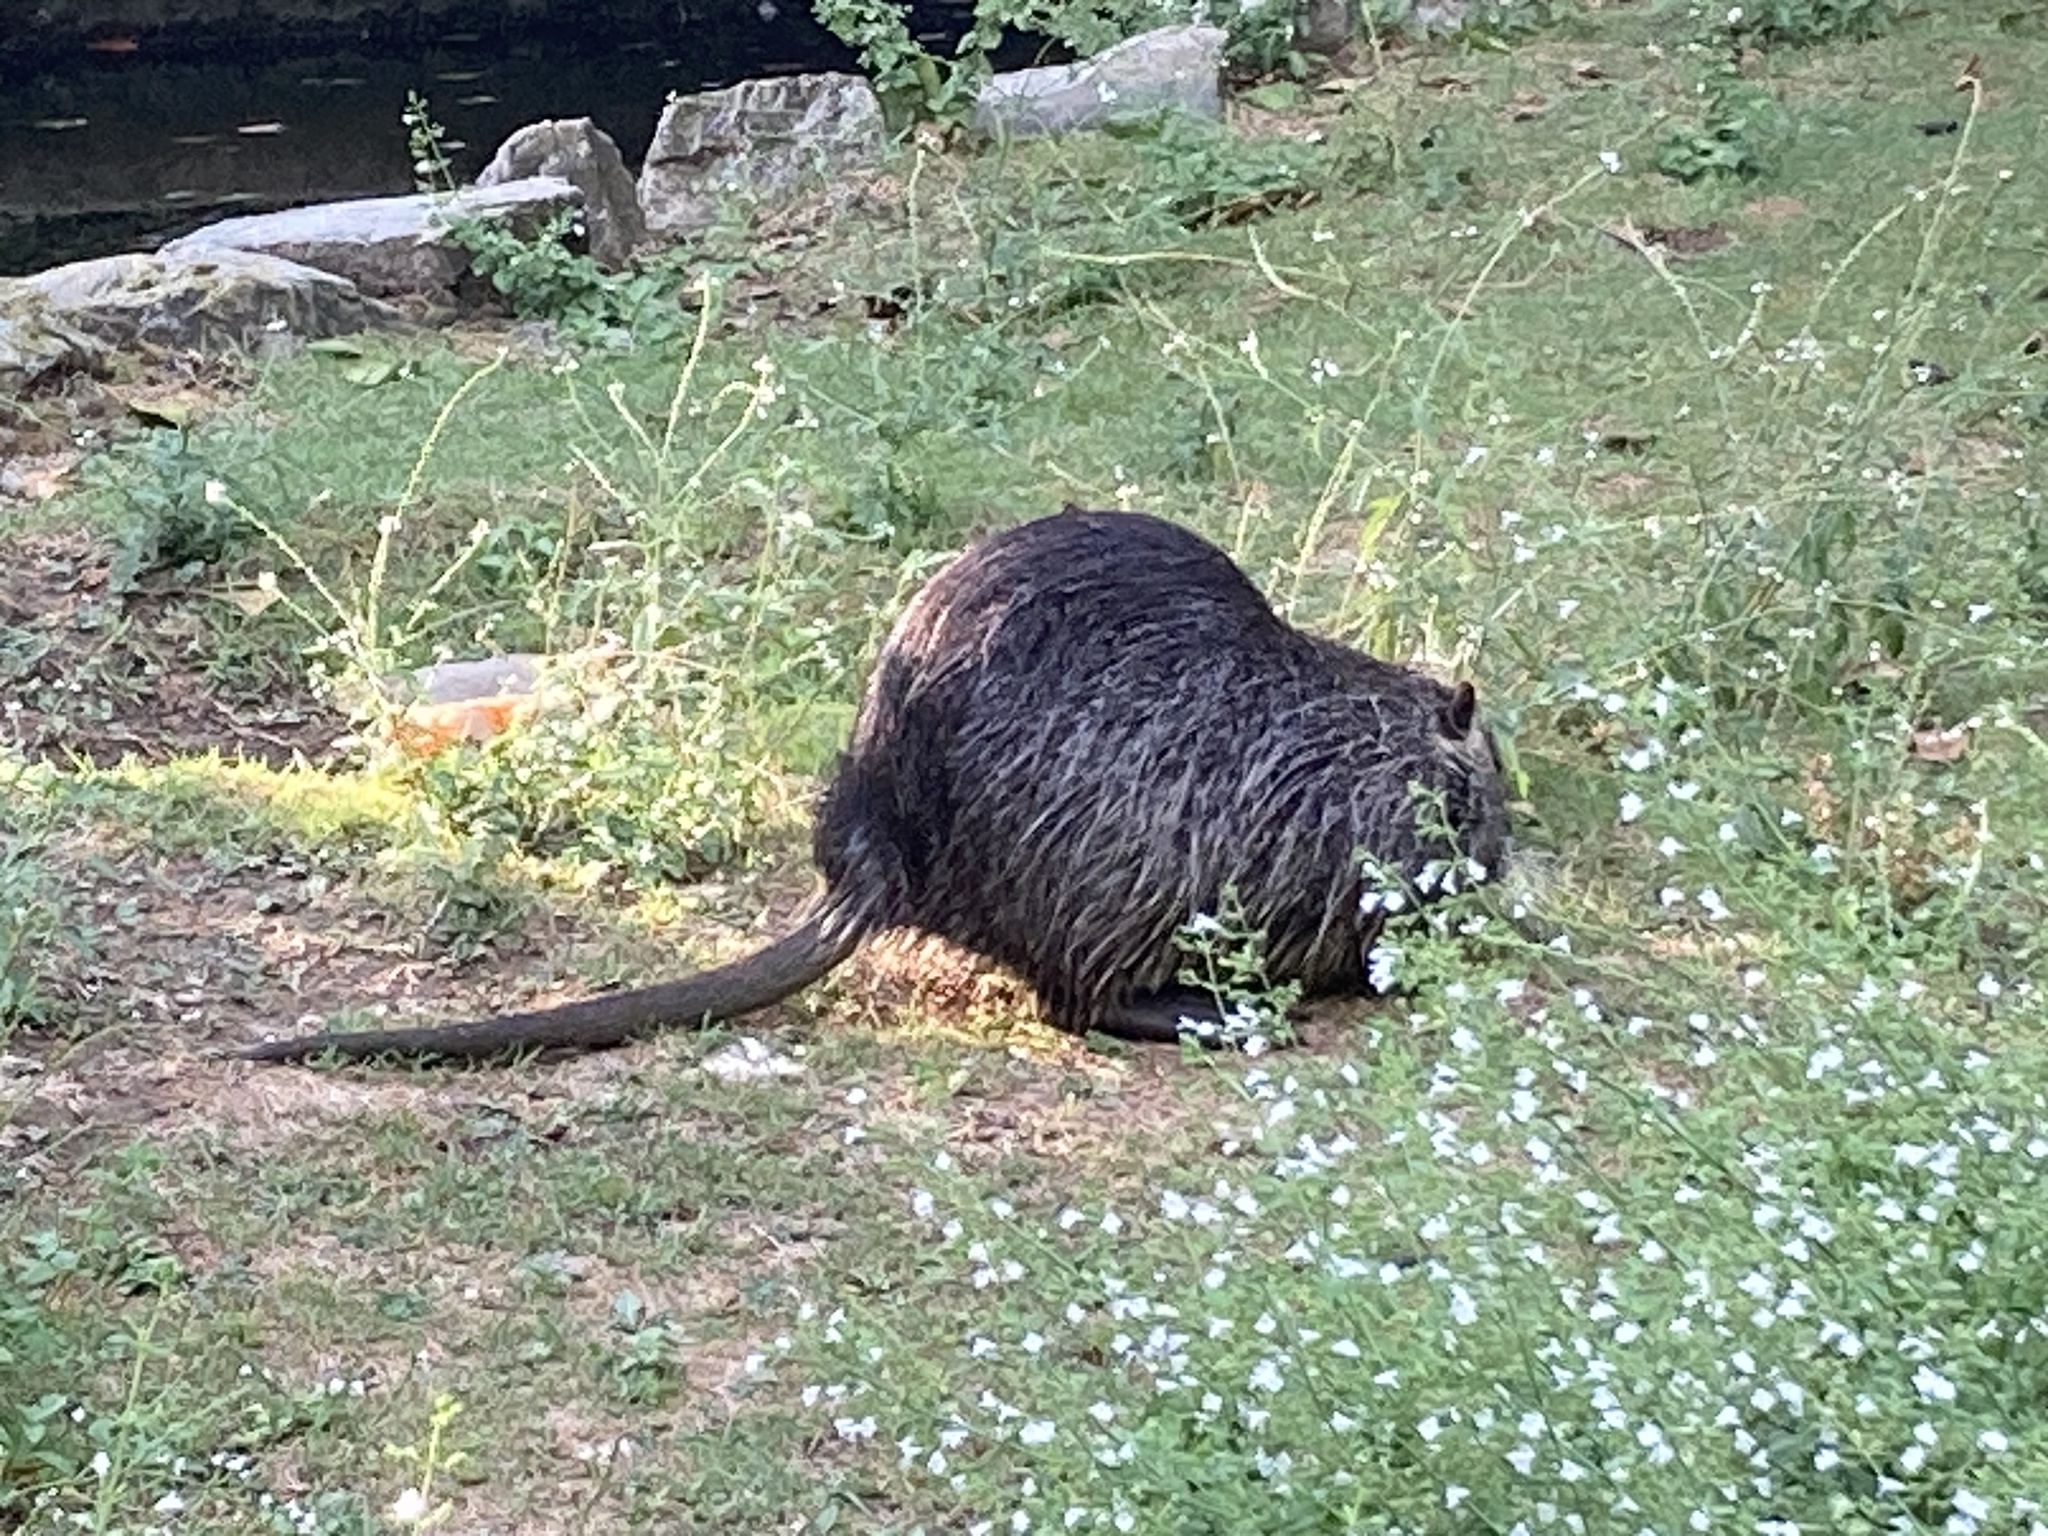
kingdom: Animalia
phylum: Chordata
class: Mammalia
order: Rodentia
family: Myocastoridae
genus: Myocastor
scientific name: Myocastor coypus
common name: Coypu
